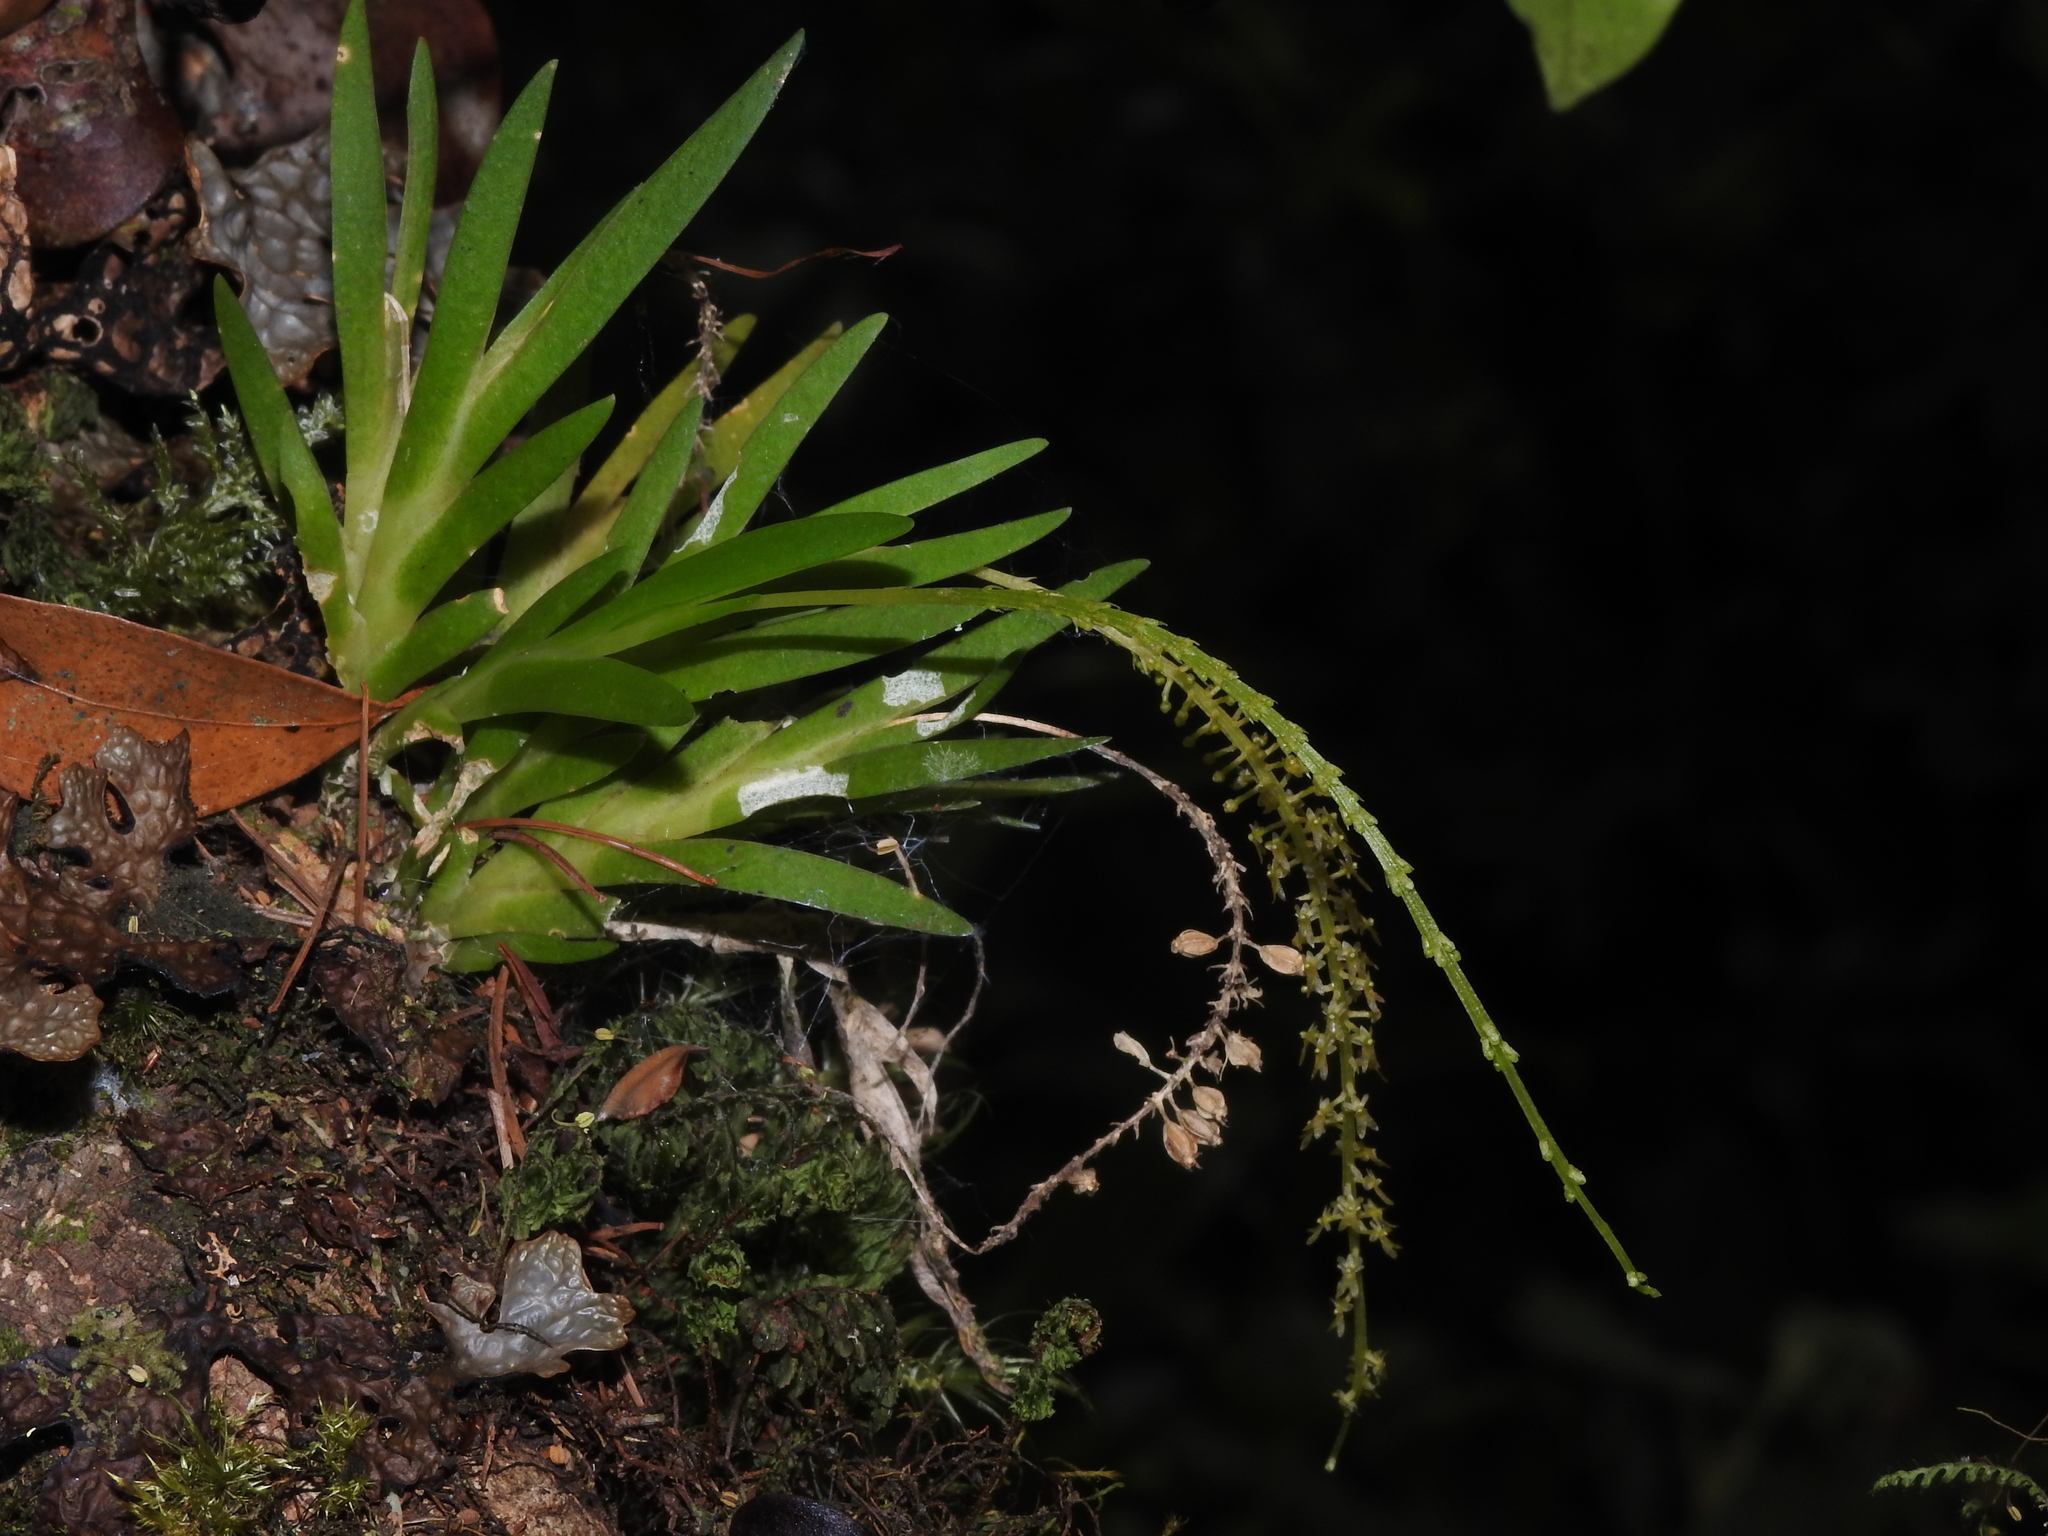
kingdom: Plantae
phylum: Tracheophyta
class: Liliopsida
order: Asparagales
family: Orchidaceae
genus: Oberonia
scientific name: Oberonia caulescens
